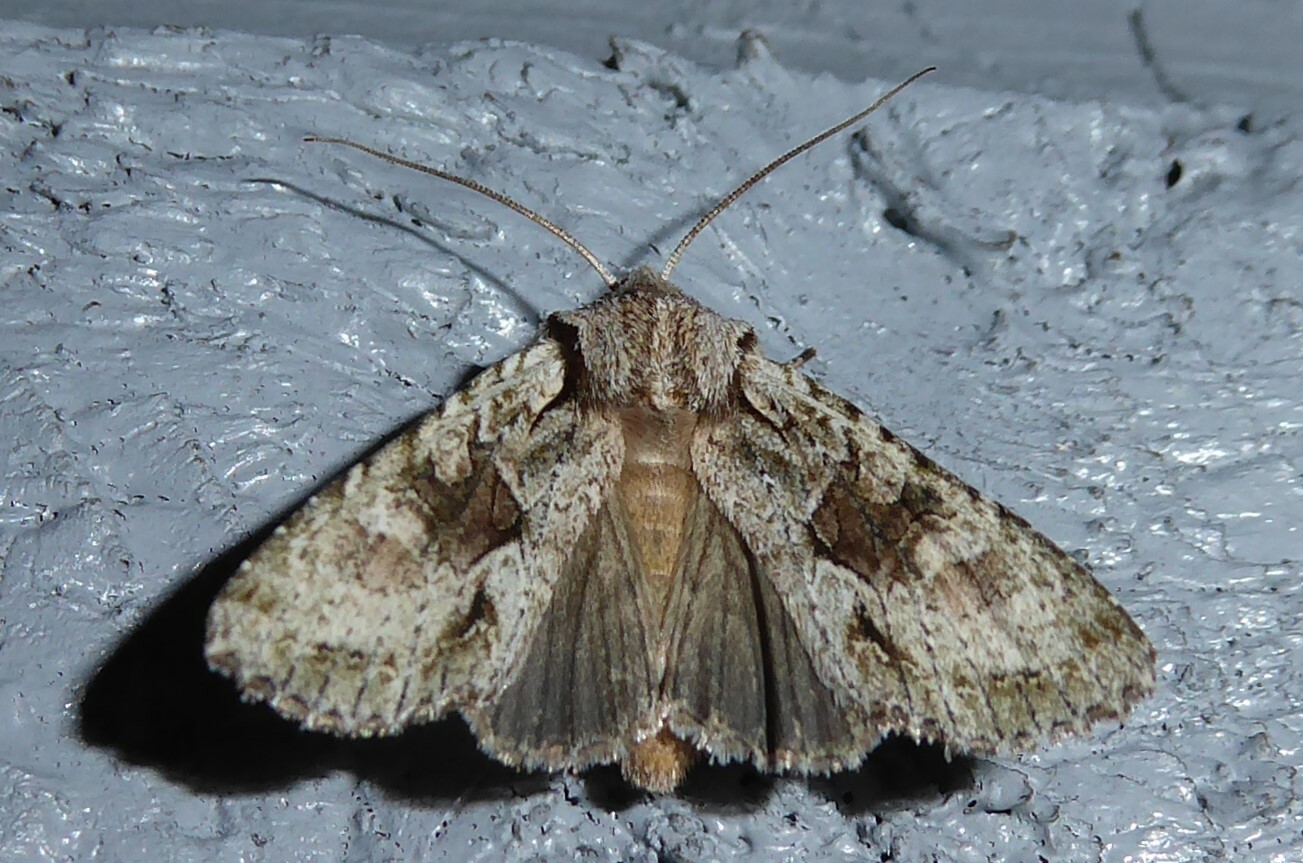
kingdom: Animalia
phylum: Arthropoda
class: Insecta
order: Lepidoptera
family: Noctuidae
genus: Ichneutica
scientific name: Ichneutica mutans
